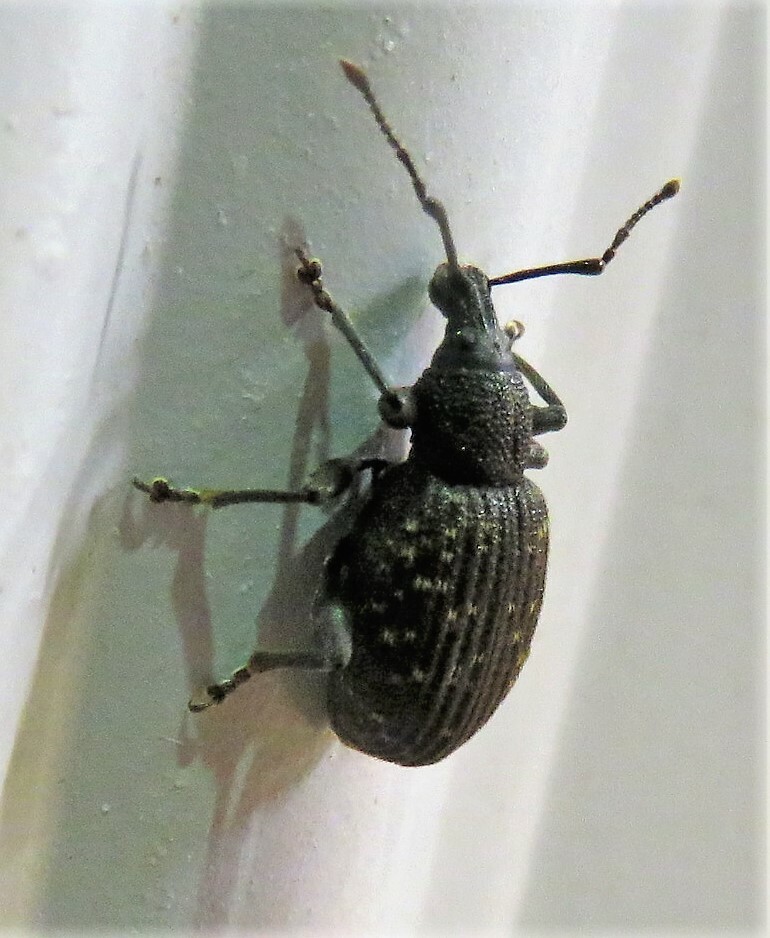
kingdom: Animalia
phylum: Arthropoda
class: Insecta
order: Coleoptera
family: Curculionidae
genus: Otiorhynchus
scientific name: Otiorhynchus sulcatus
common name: Black vine weevil
